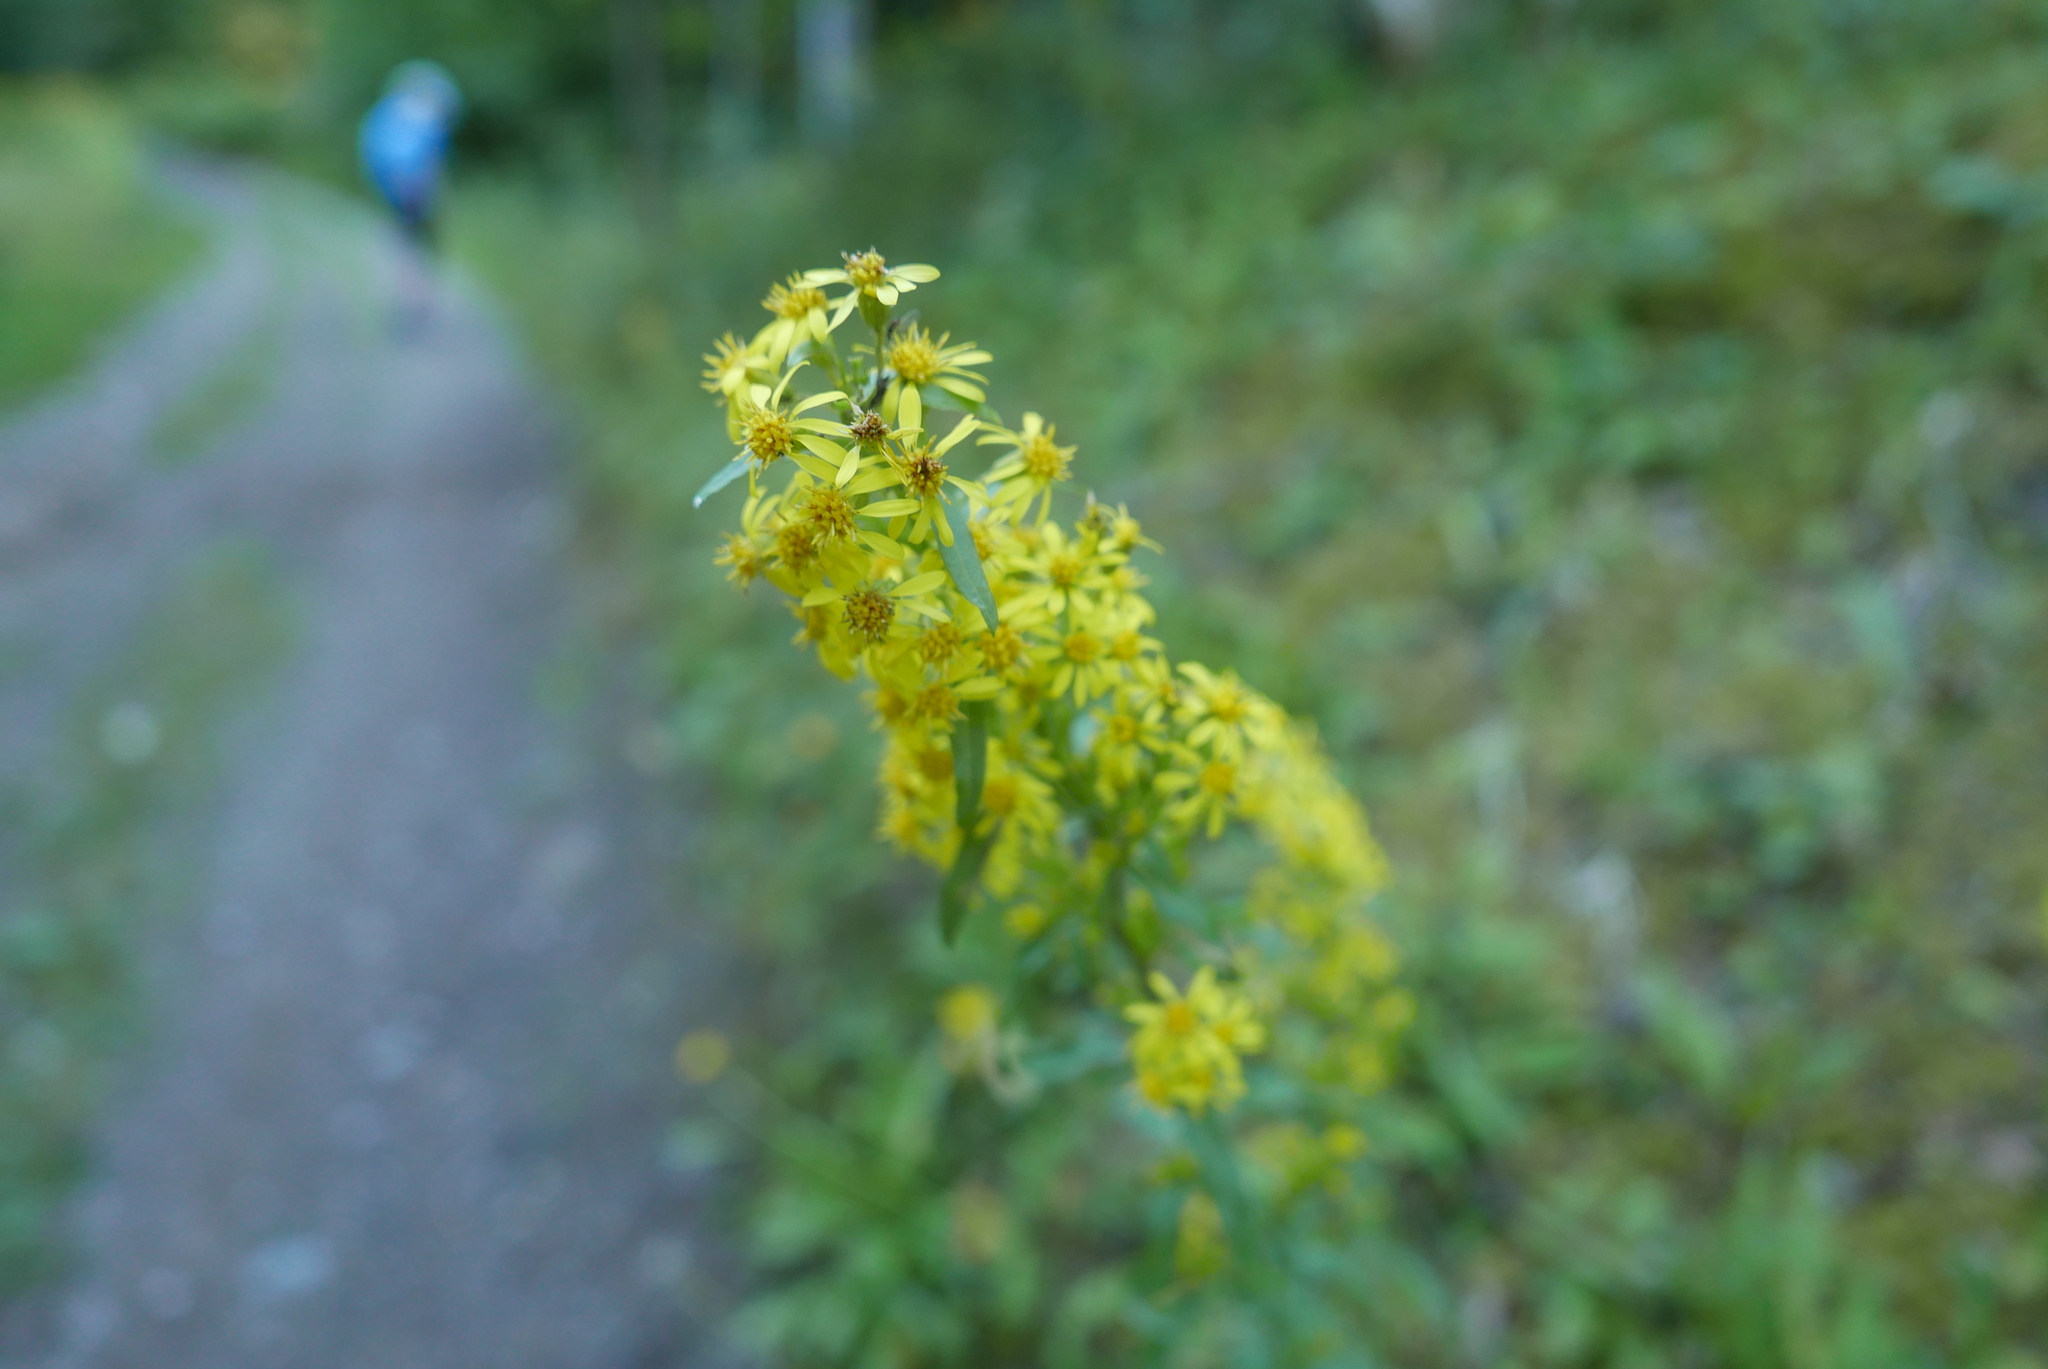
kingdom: Plantae
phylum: Tracheophyta
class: Magnoliopsida
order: Asterales
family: Asteraceae
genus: Solidago
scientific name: Solidago virgaurea
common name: Goldenrod
